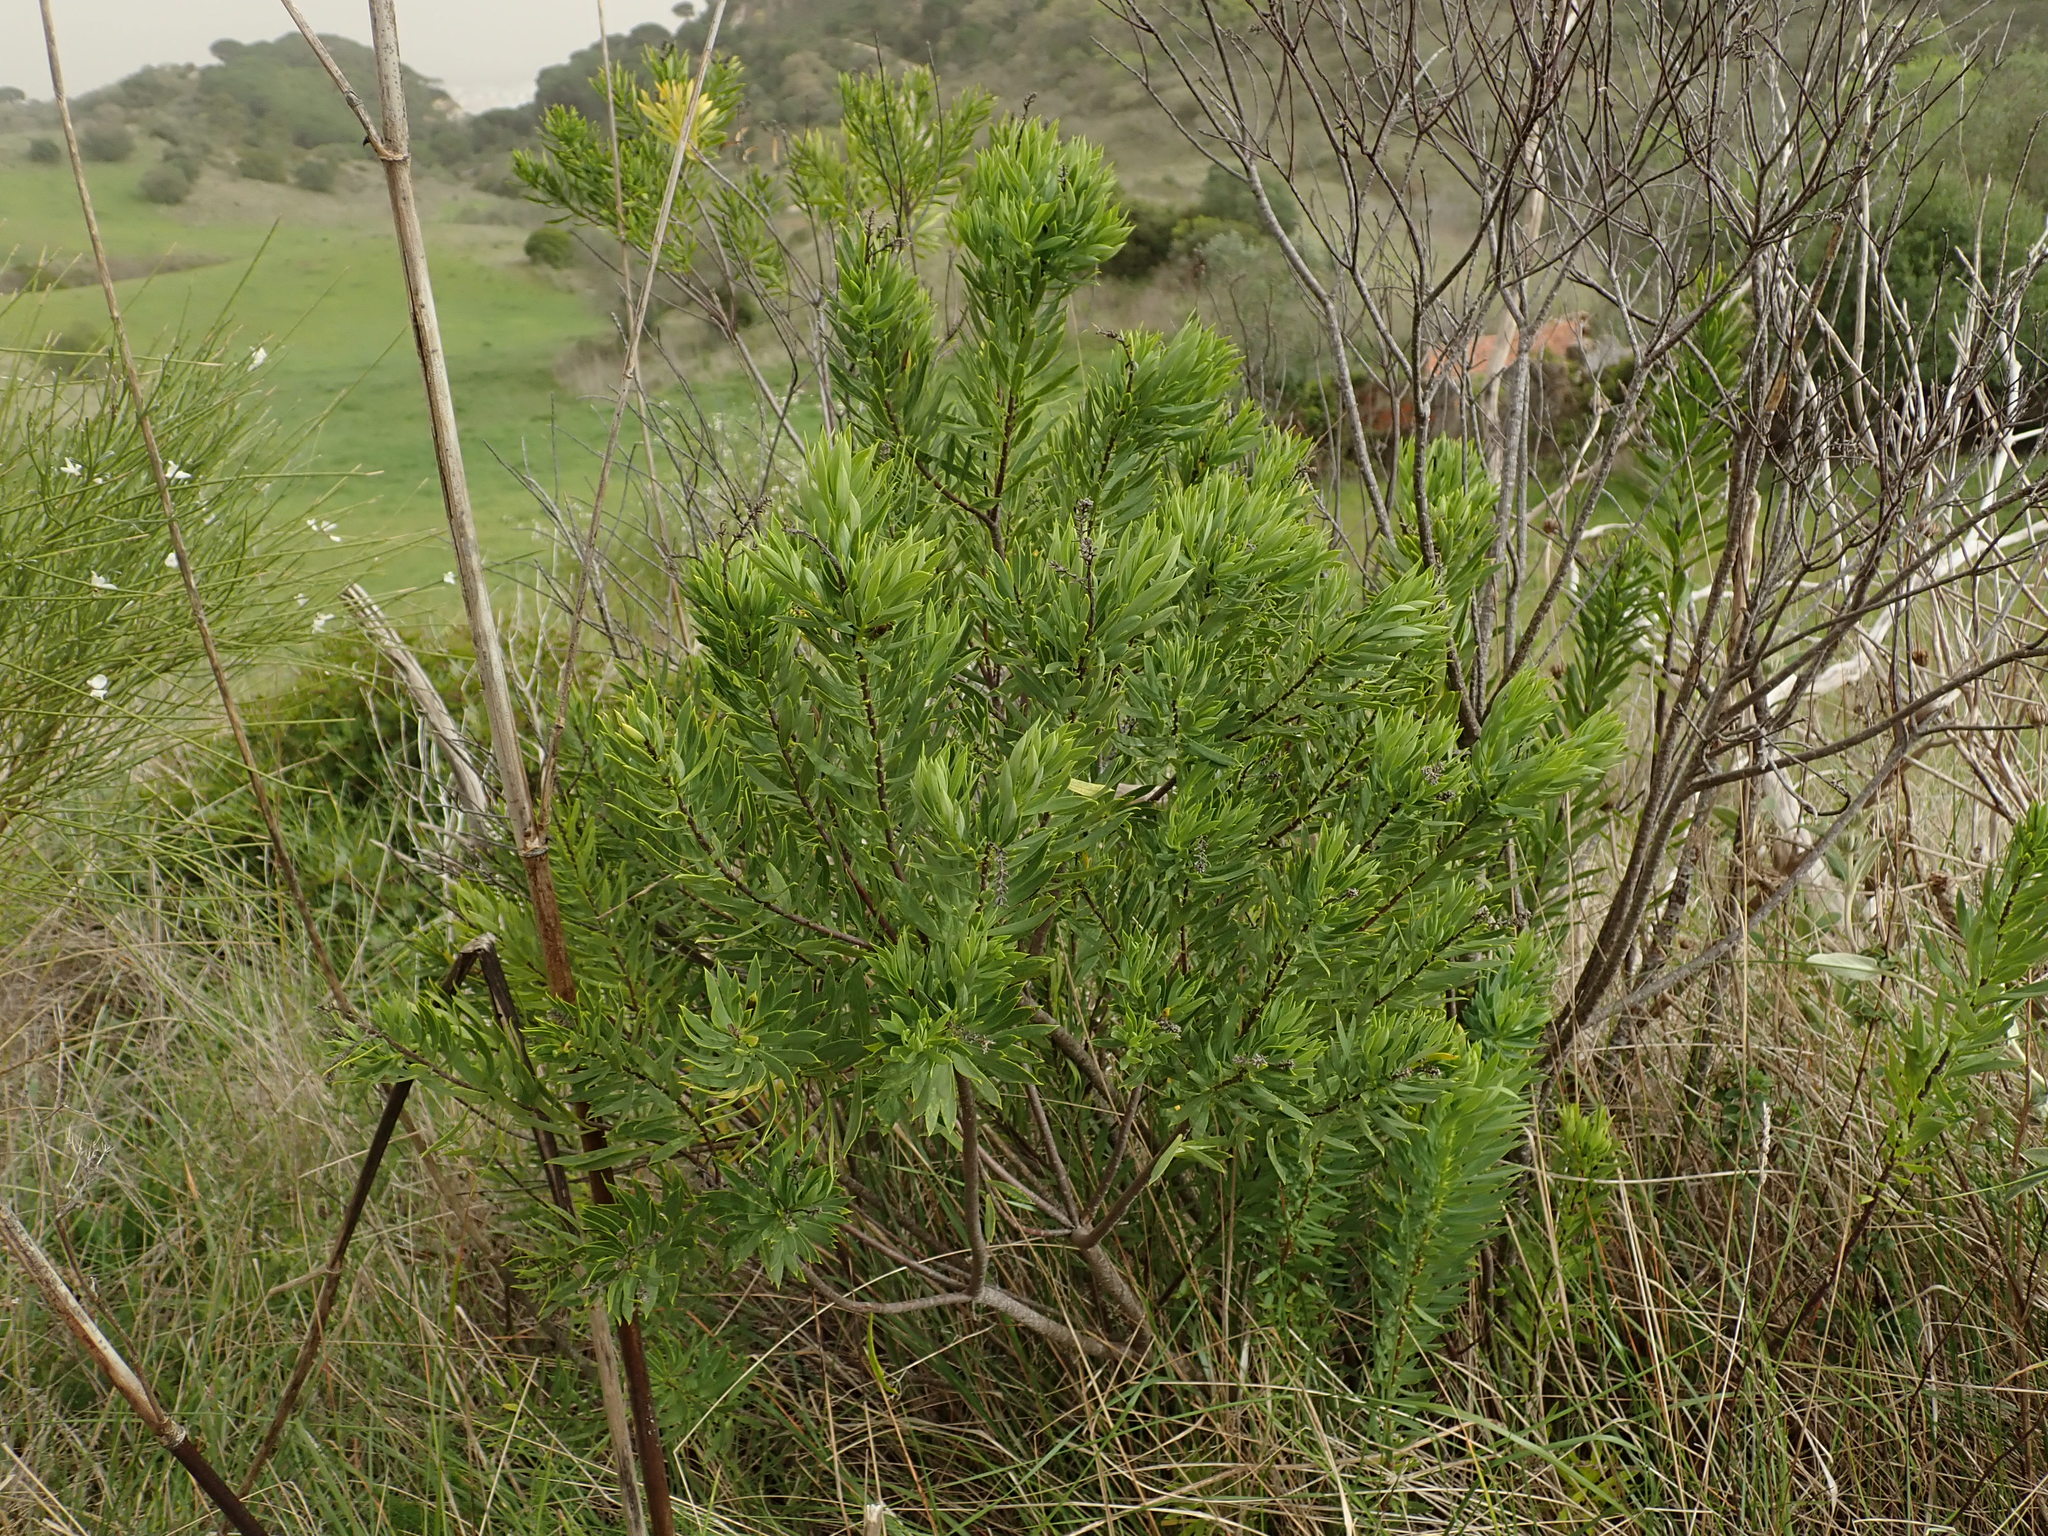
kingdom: Plantae
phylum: Tracheophyta
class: Magnoliopsida
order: Malvales
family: Thymelaeaceae
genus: Daphne
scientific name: Daphne gnidium
